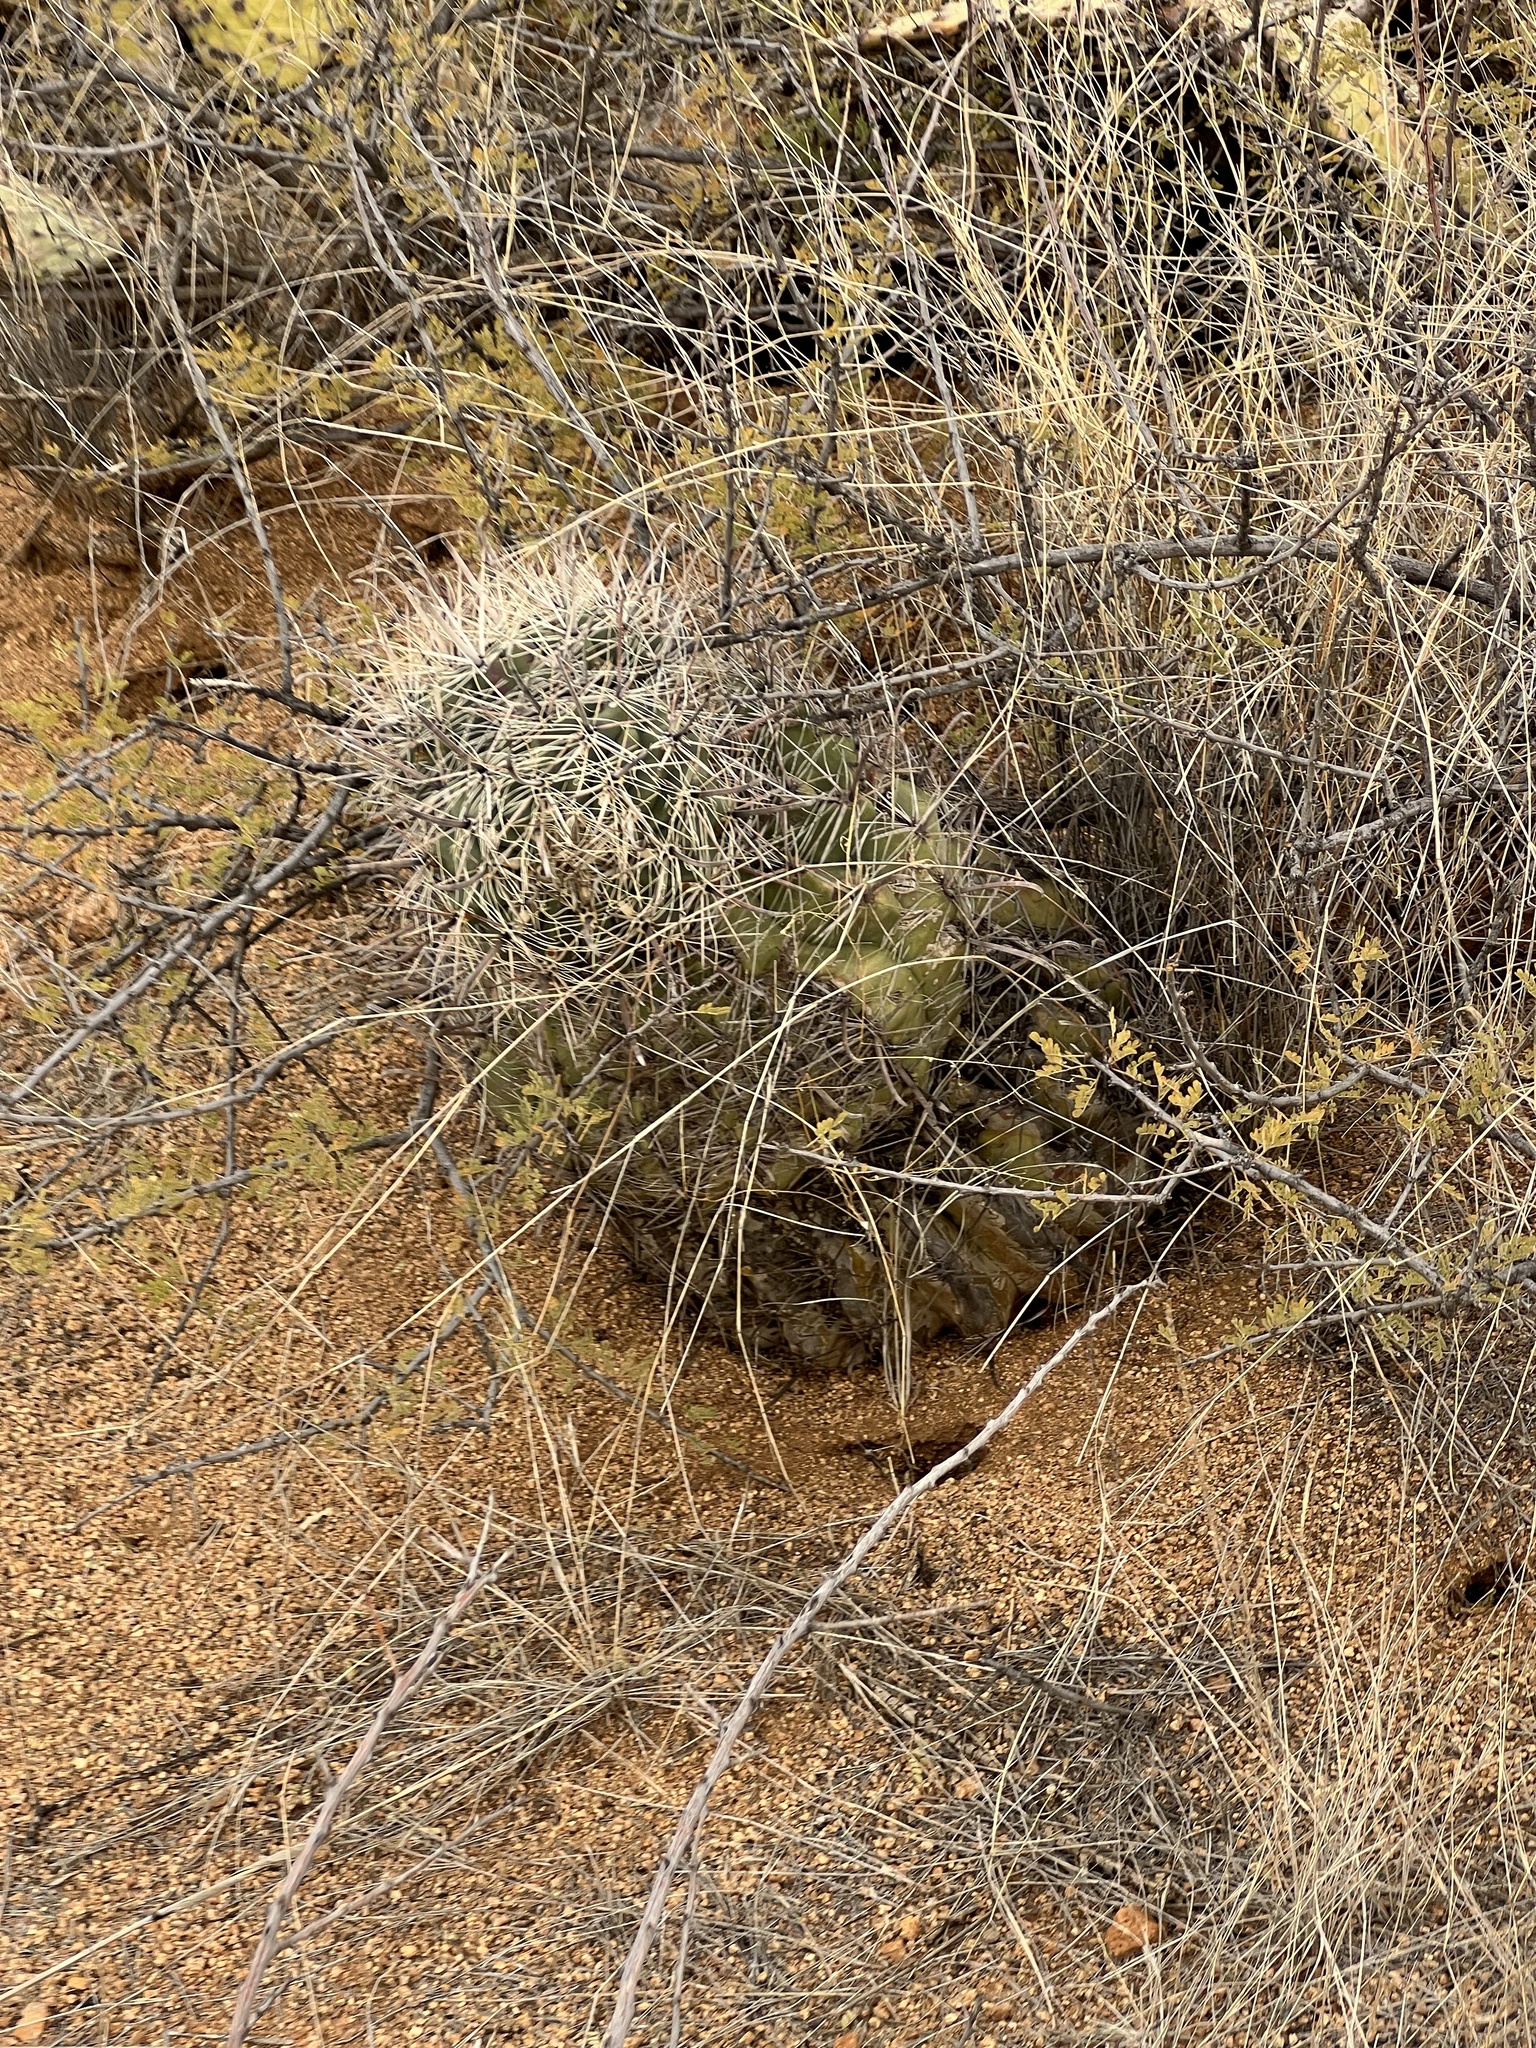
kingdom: Plantae
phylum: Tracheophyta
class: Magnoliopsida
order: Caryophyllales
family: Cactaceae
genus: Ferocactus
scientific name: Ferocactus wislizeni
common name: Candy barrel cactus
